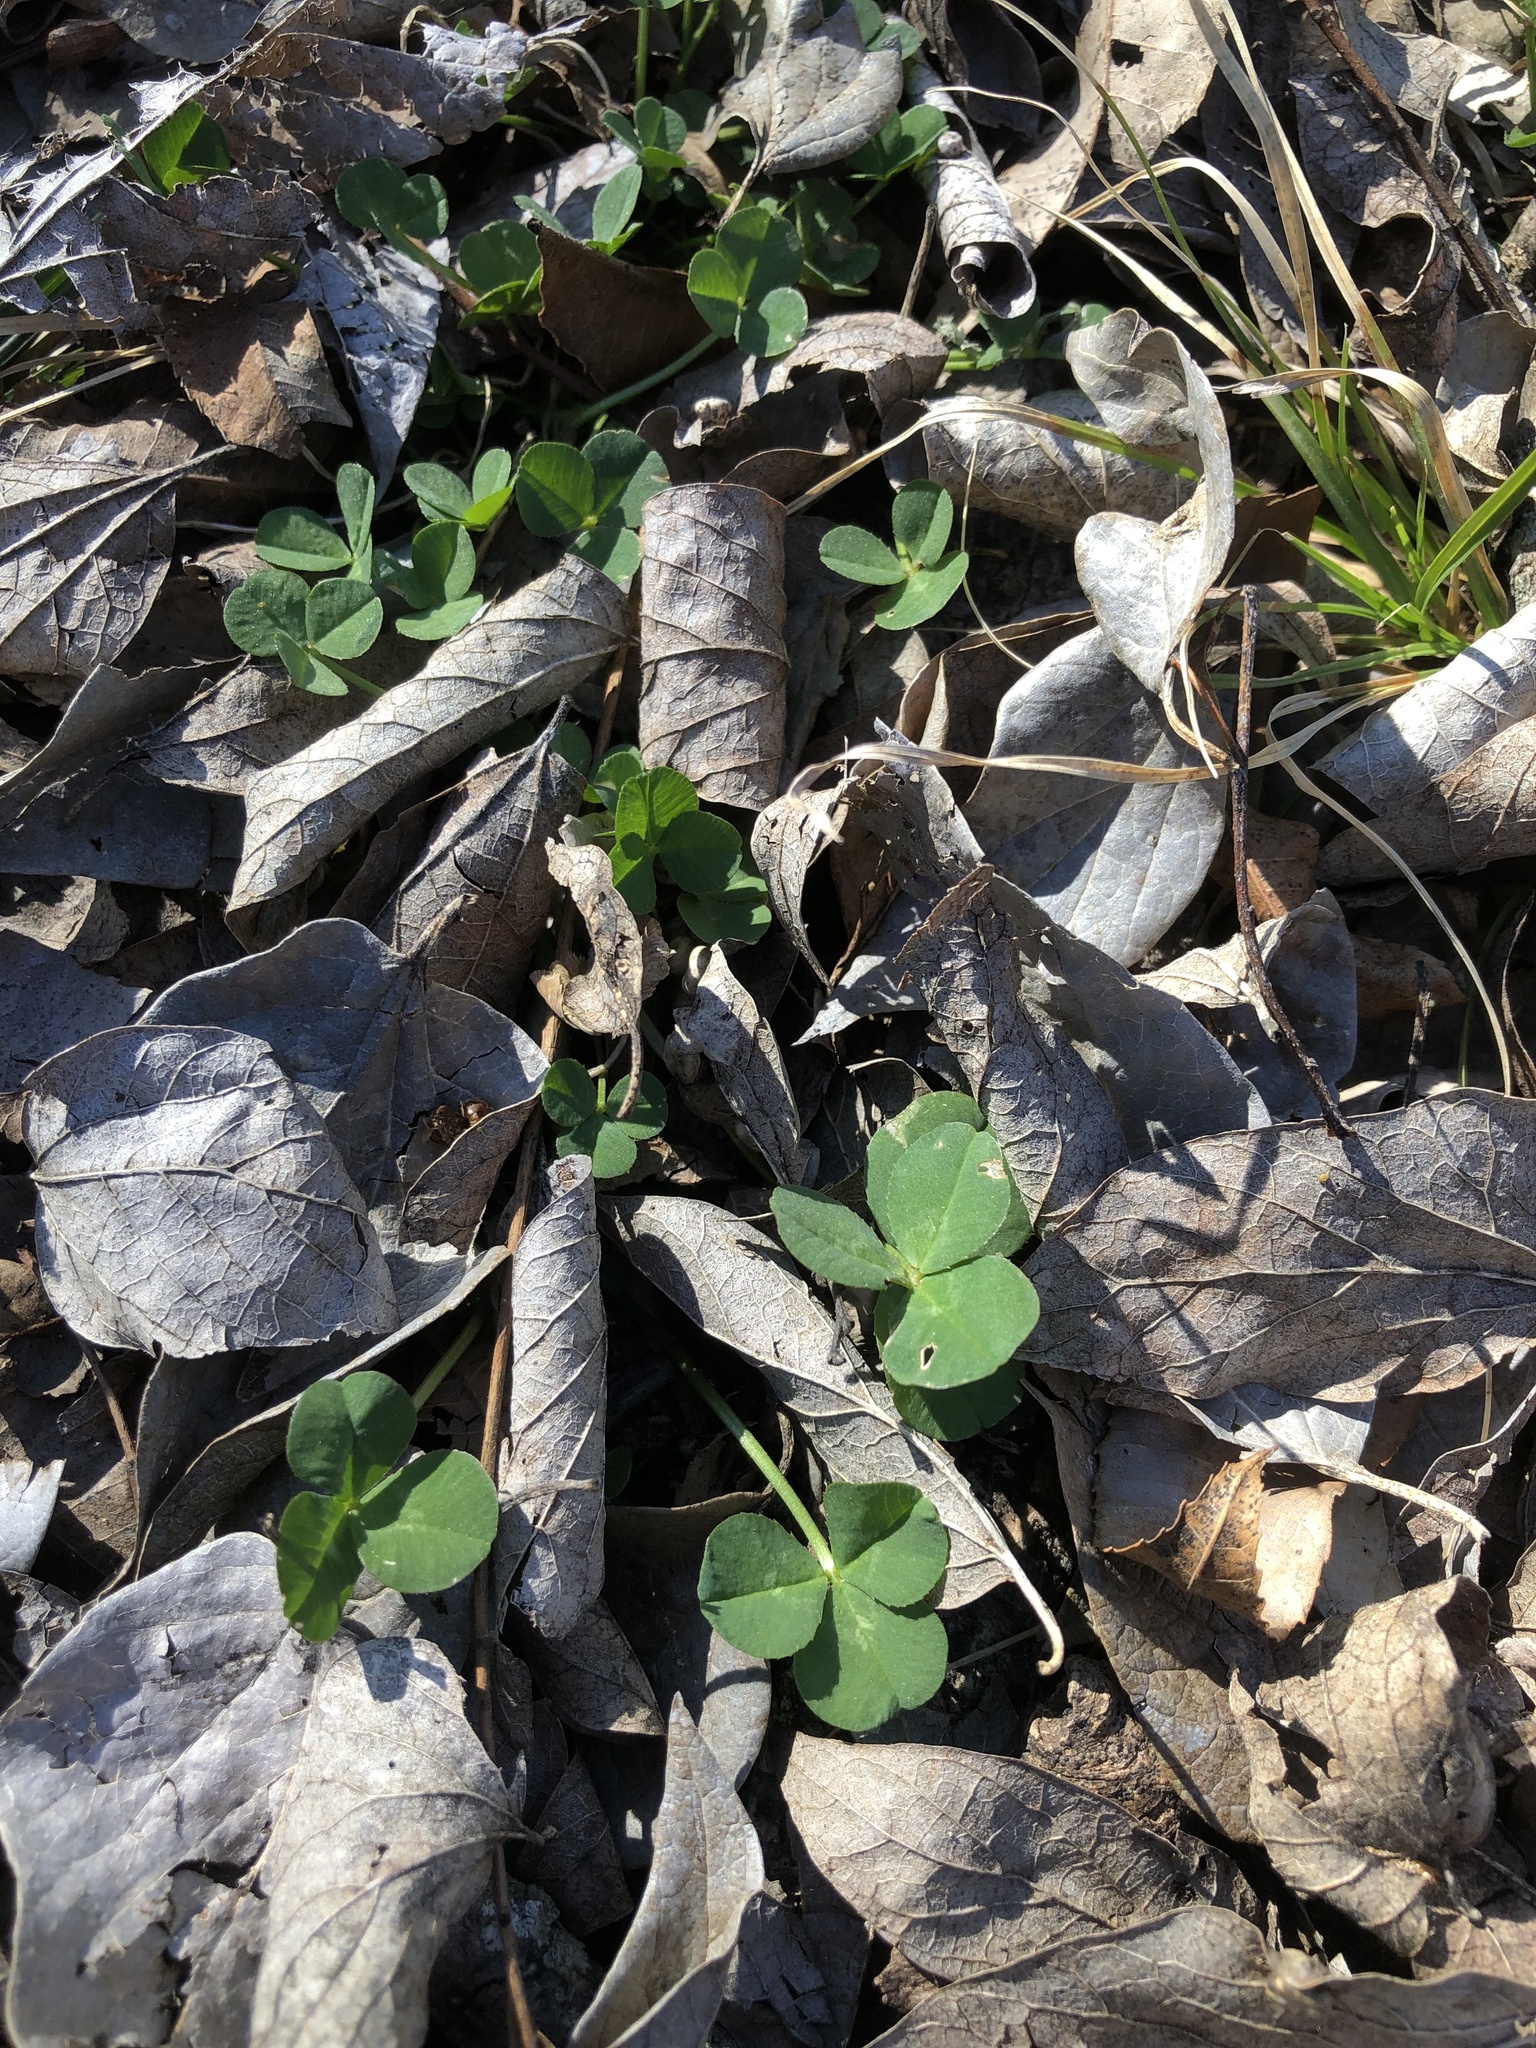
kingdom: Plantae
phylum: Tracheophyta
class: Magnoliopsida
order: Fabales
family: Fabaceae
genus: Trifolium
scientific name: Trifolium repens
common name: White clover
